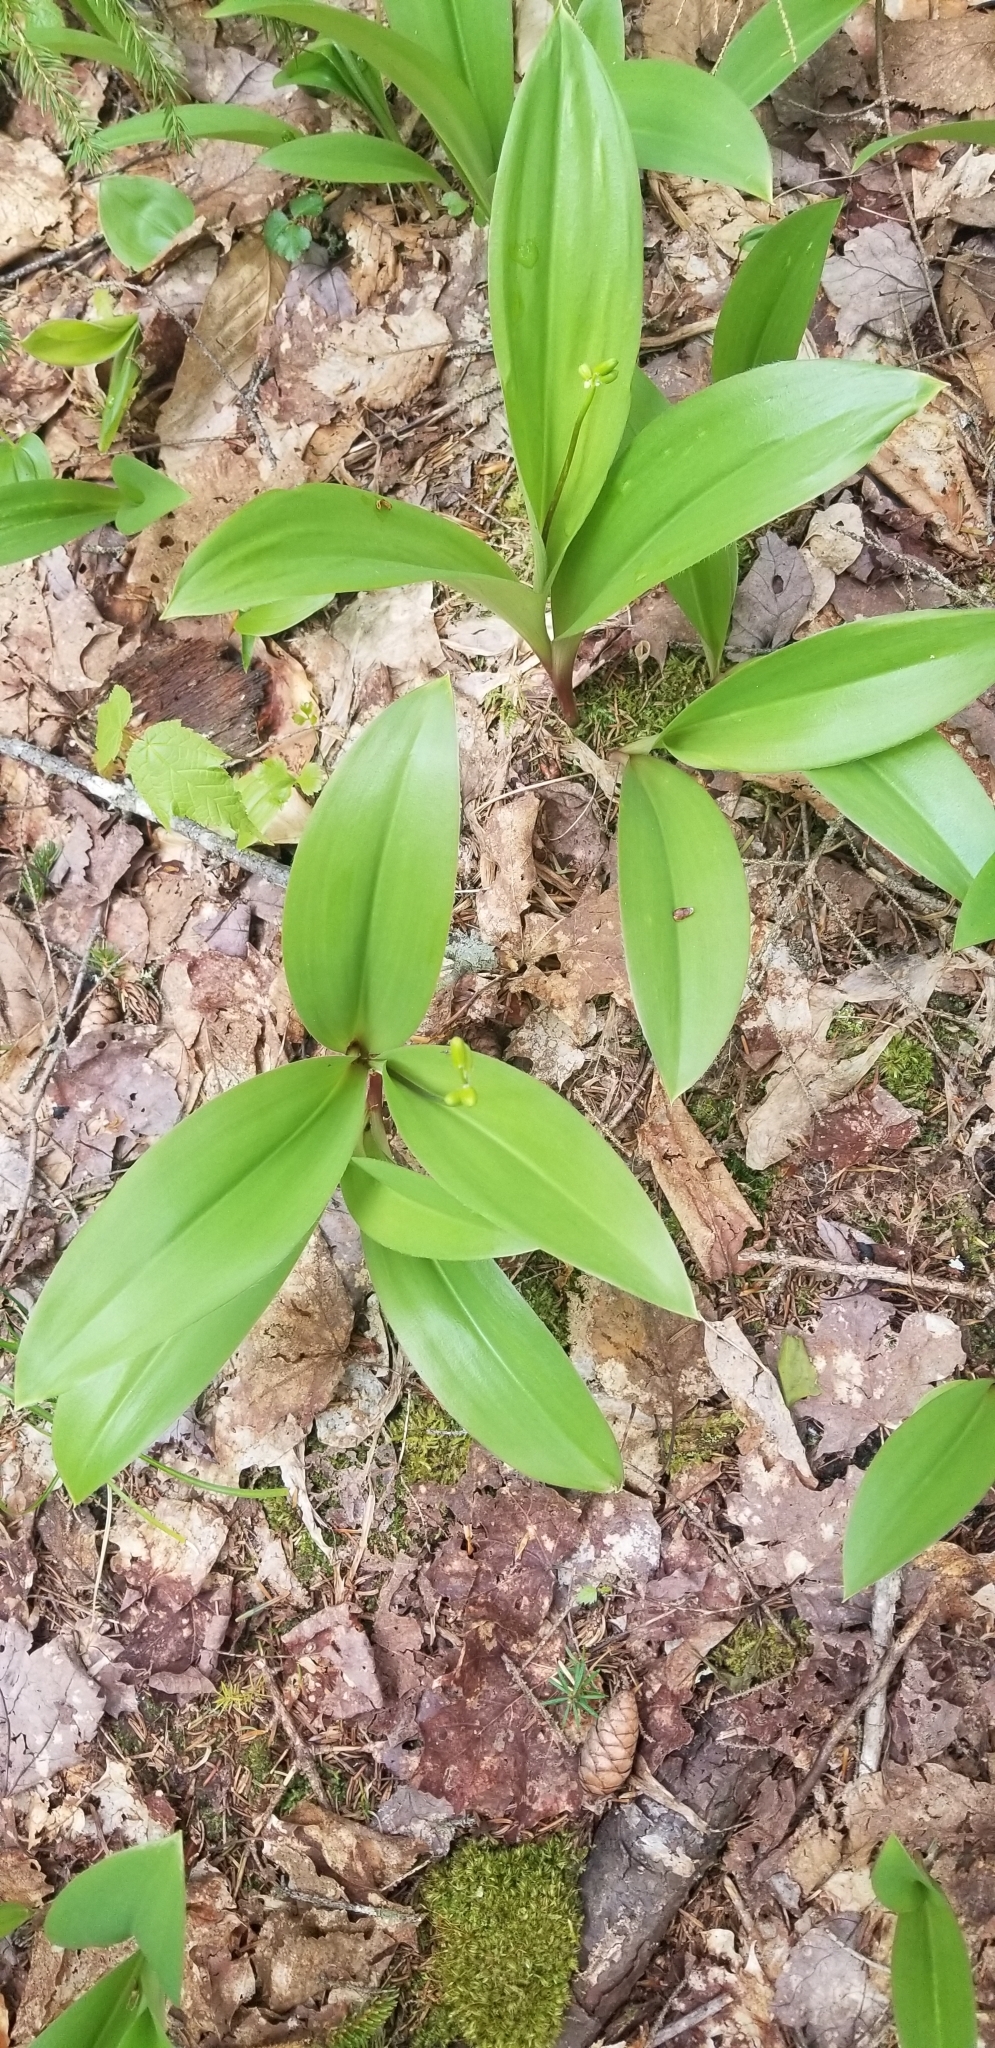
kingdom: Plantae
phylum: Tracheophyta
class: Liliopsida
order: Liliales
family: Liliaceae
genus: Clintonia
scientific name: Clintonia borealis
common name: Yellow clintonia
